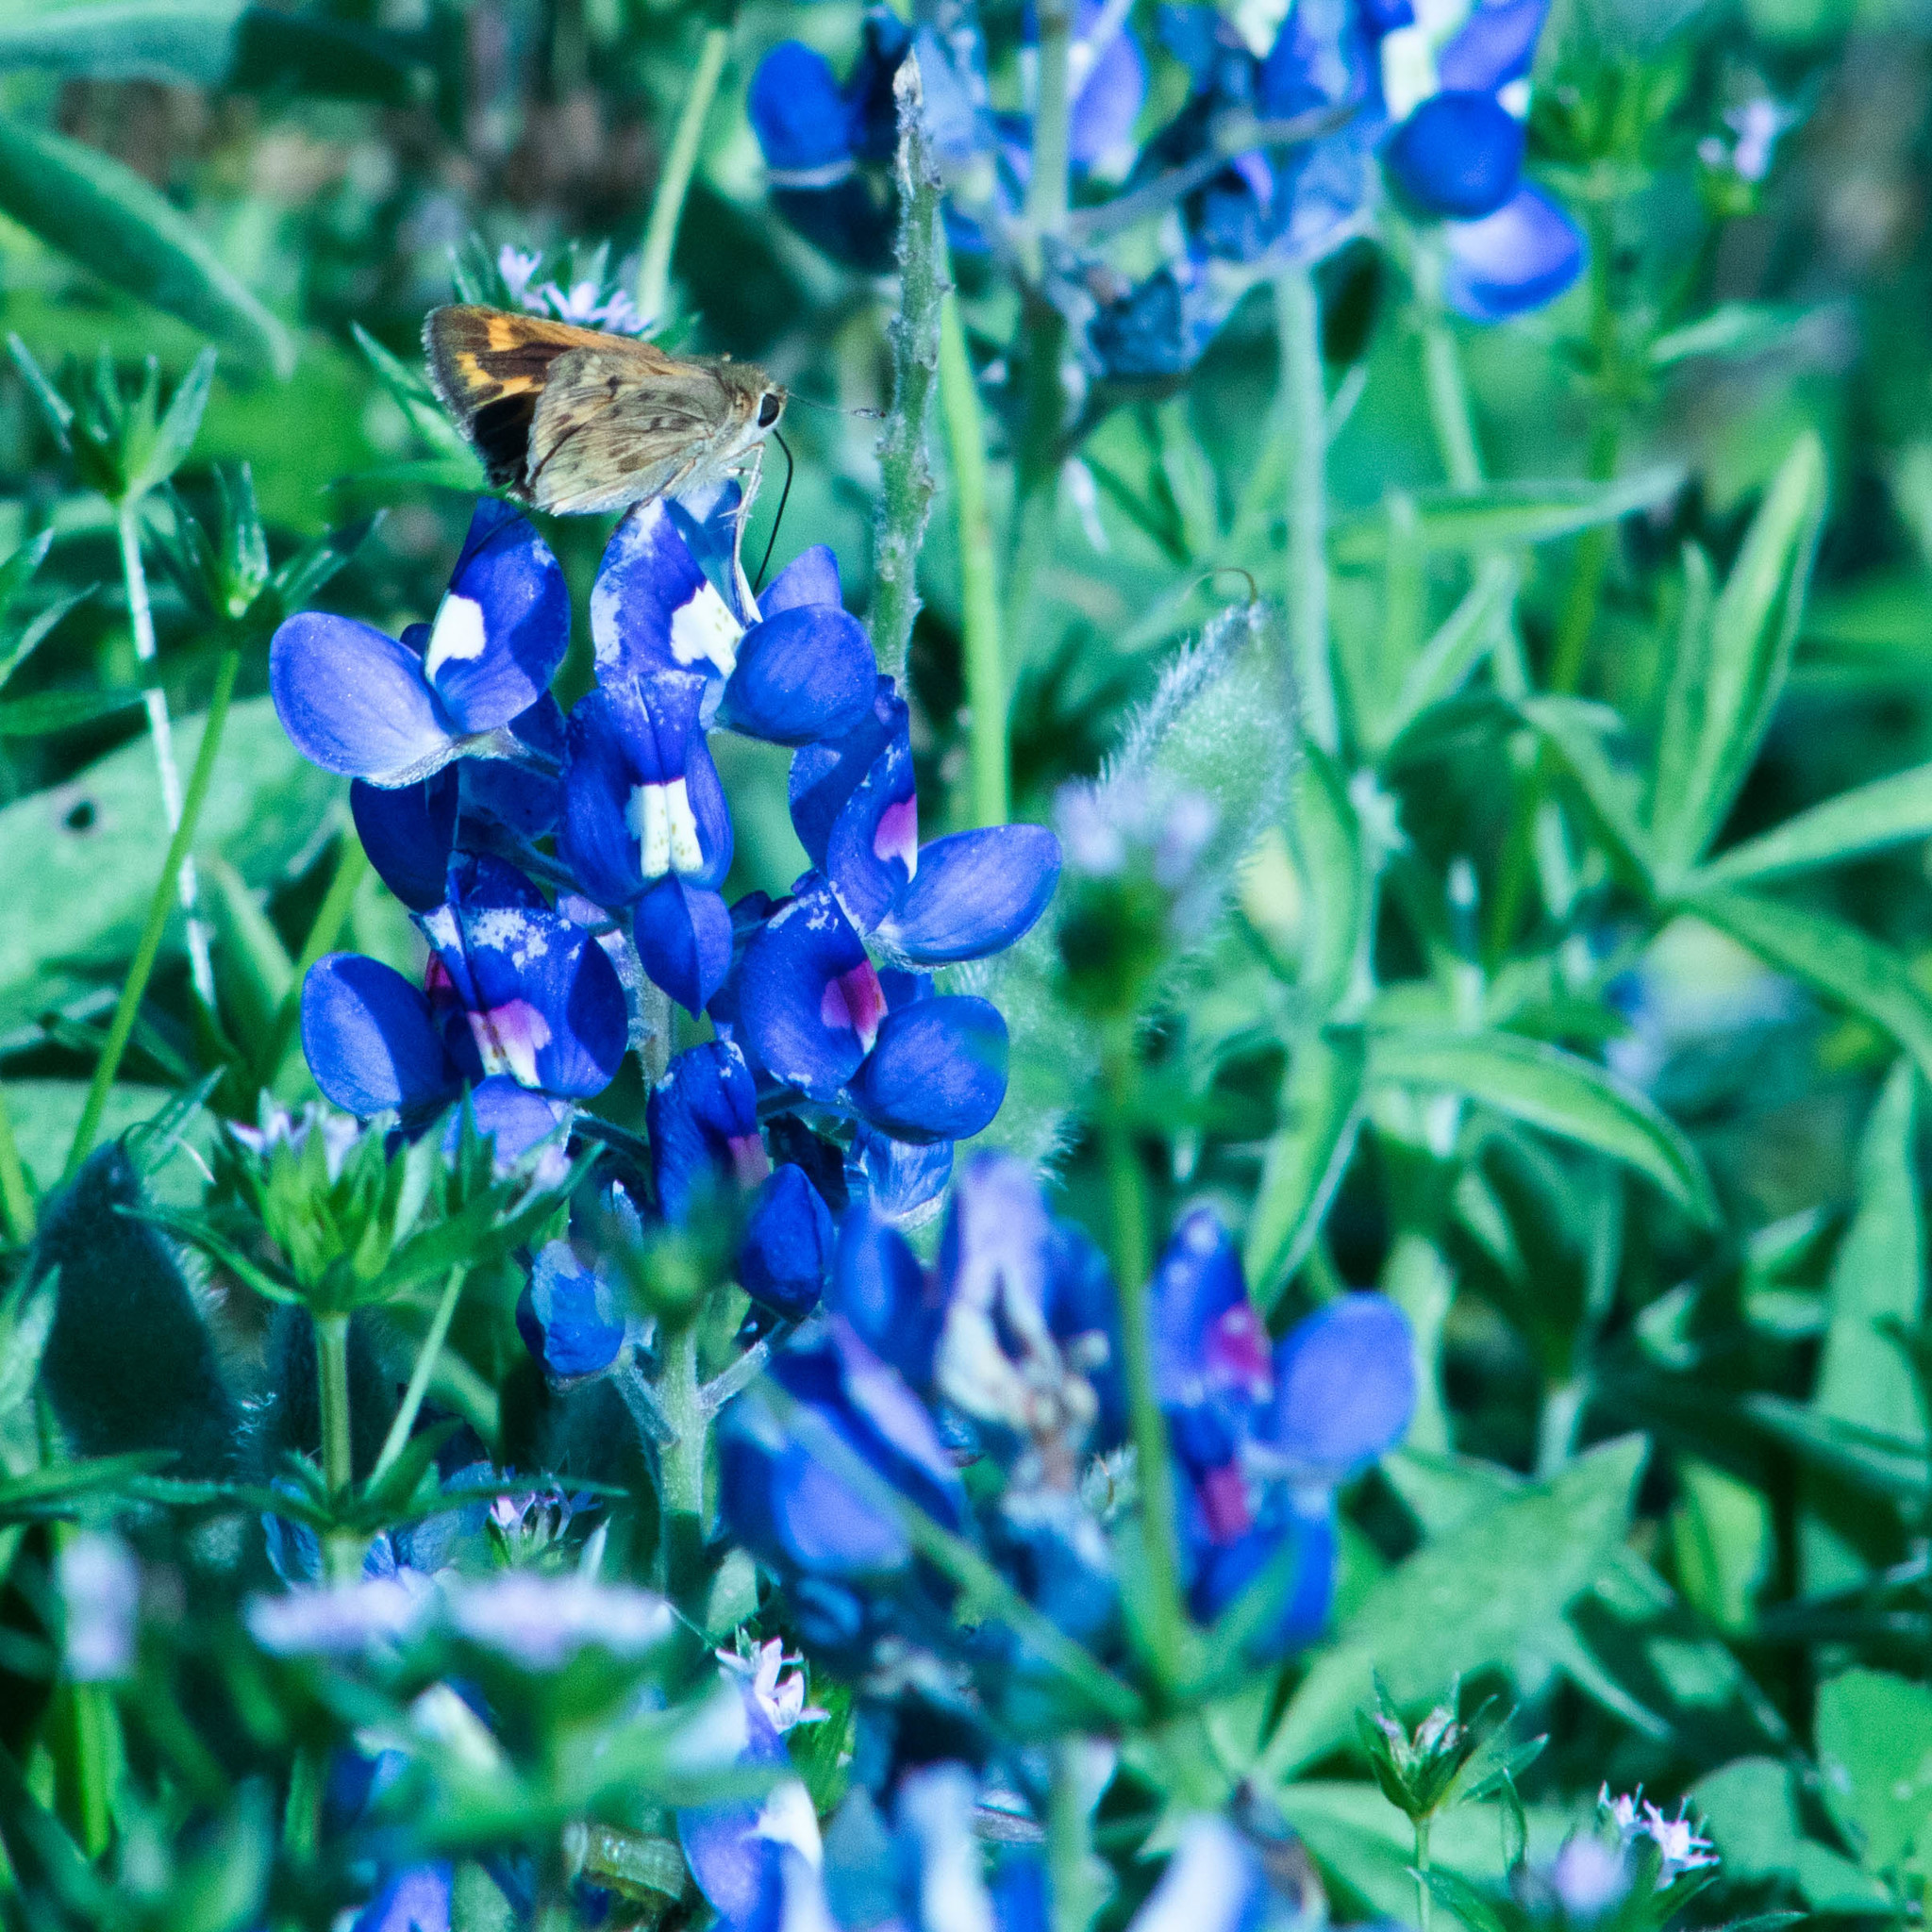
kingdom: Animalia
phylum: Arthropoda
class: Insecta
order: Lepidoptera
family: Hesperiidae
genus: Hylephila
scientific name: Hylephila phyleus
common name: Fiery skipper
